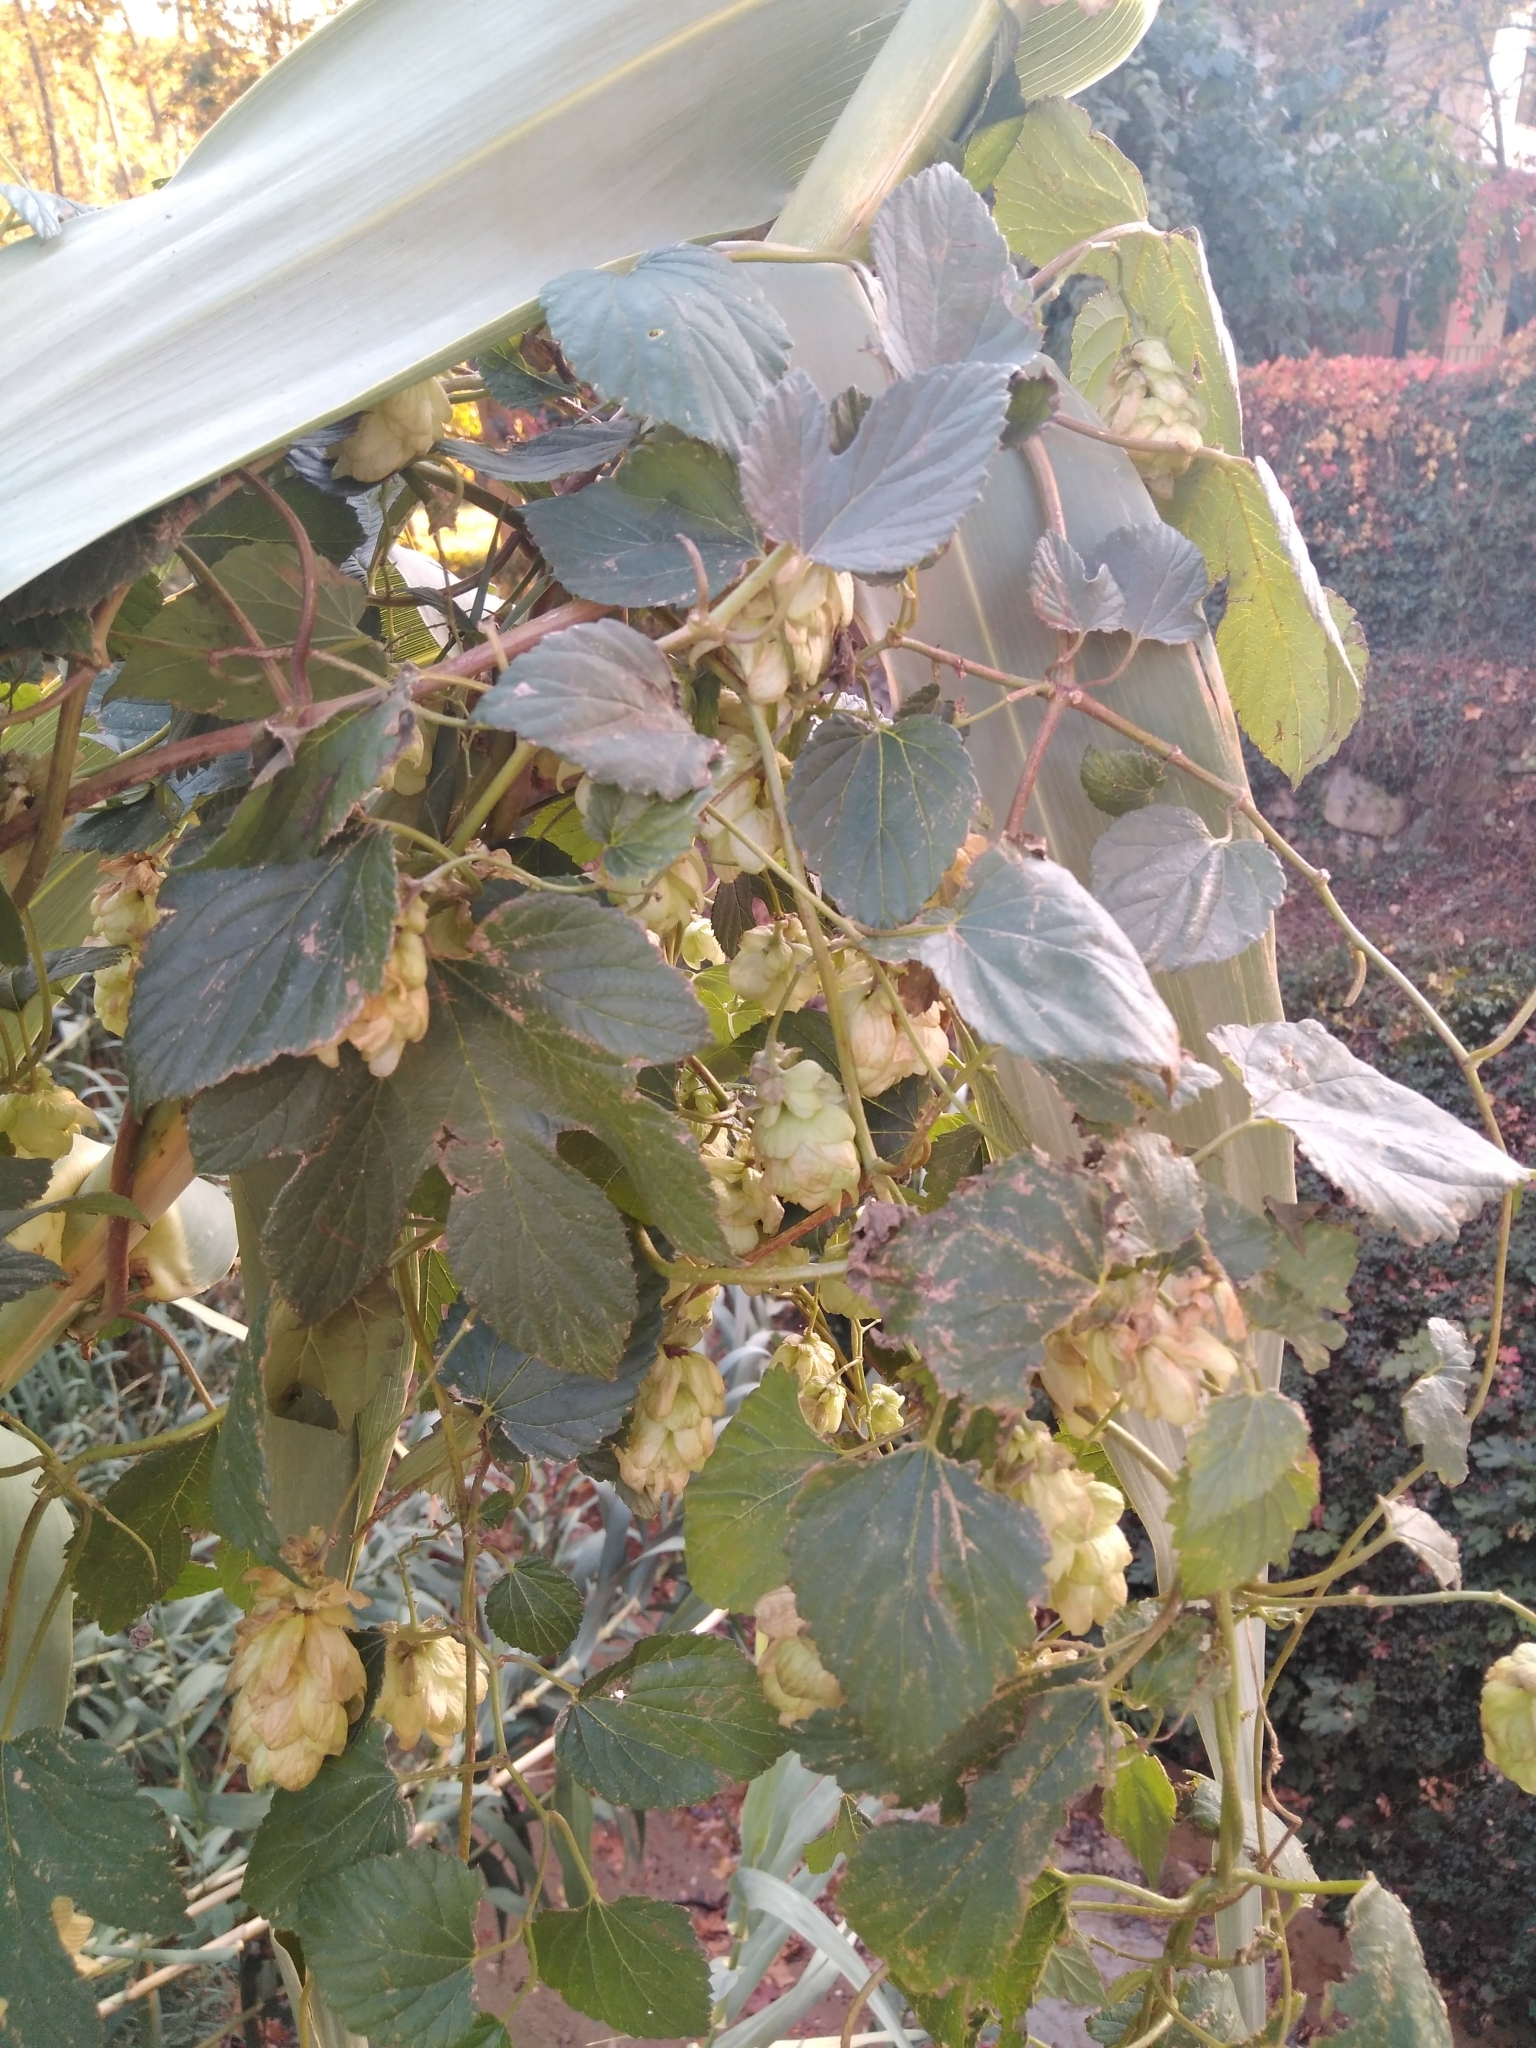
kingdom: Plantae
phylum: Tracheophyta
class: Magnoliopsida
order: Rosales
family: Cannabaceae
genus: Humulus
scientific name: Humulus lupulus
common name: Hop
